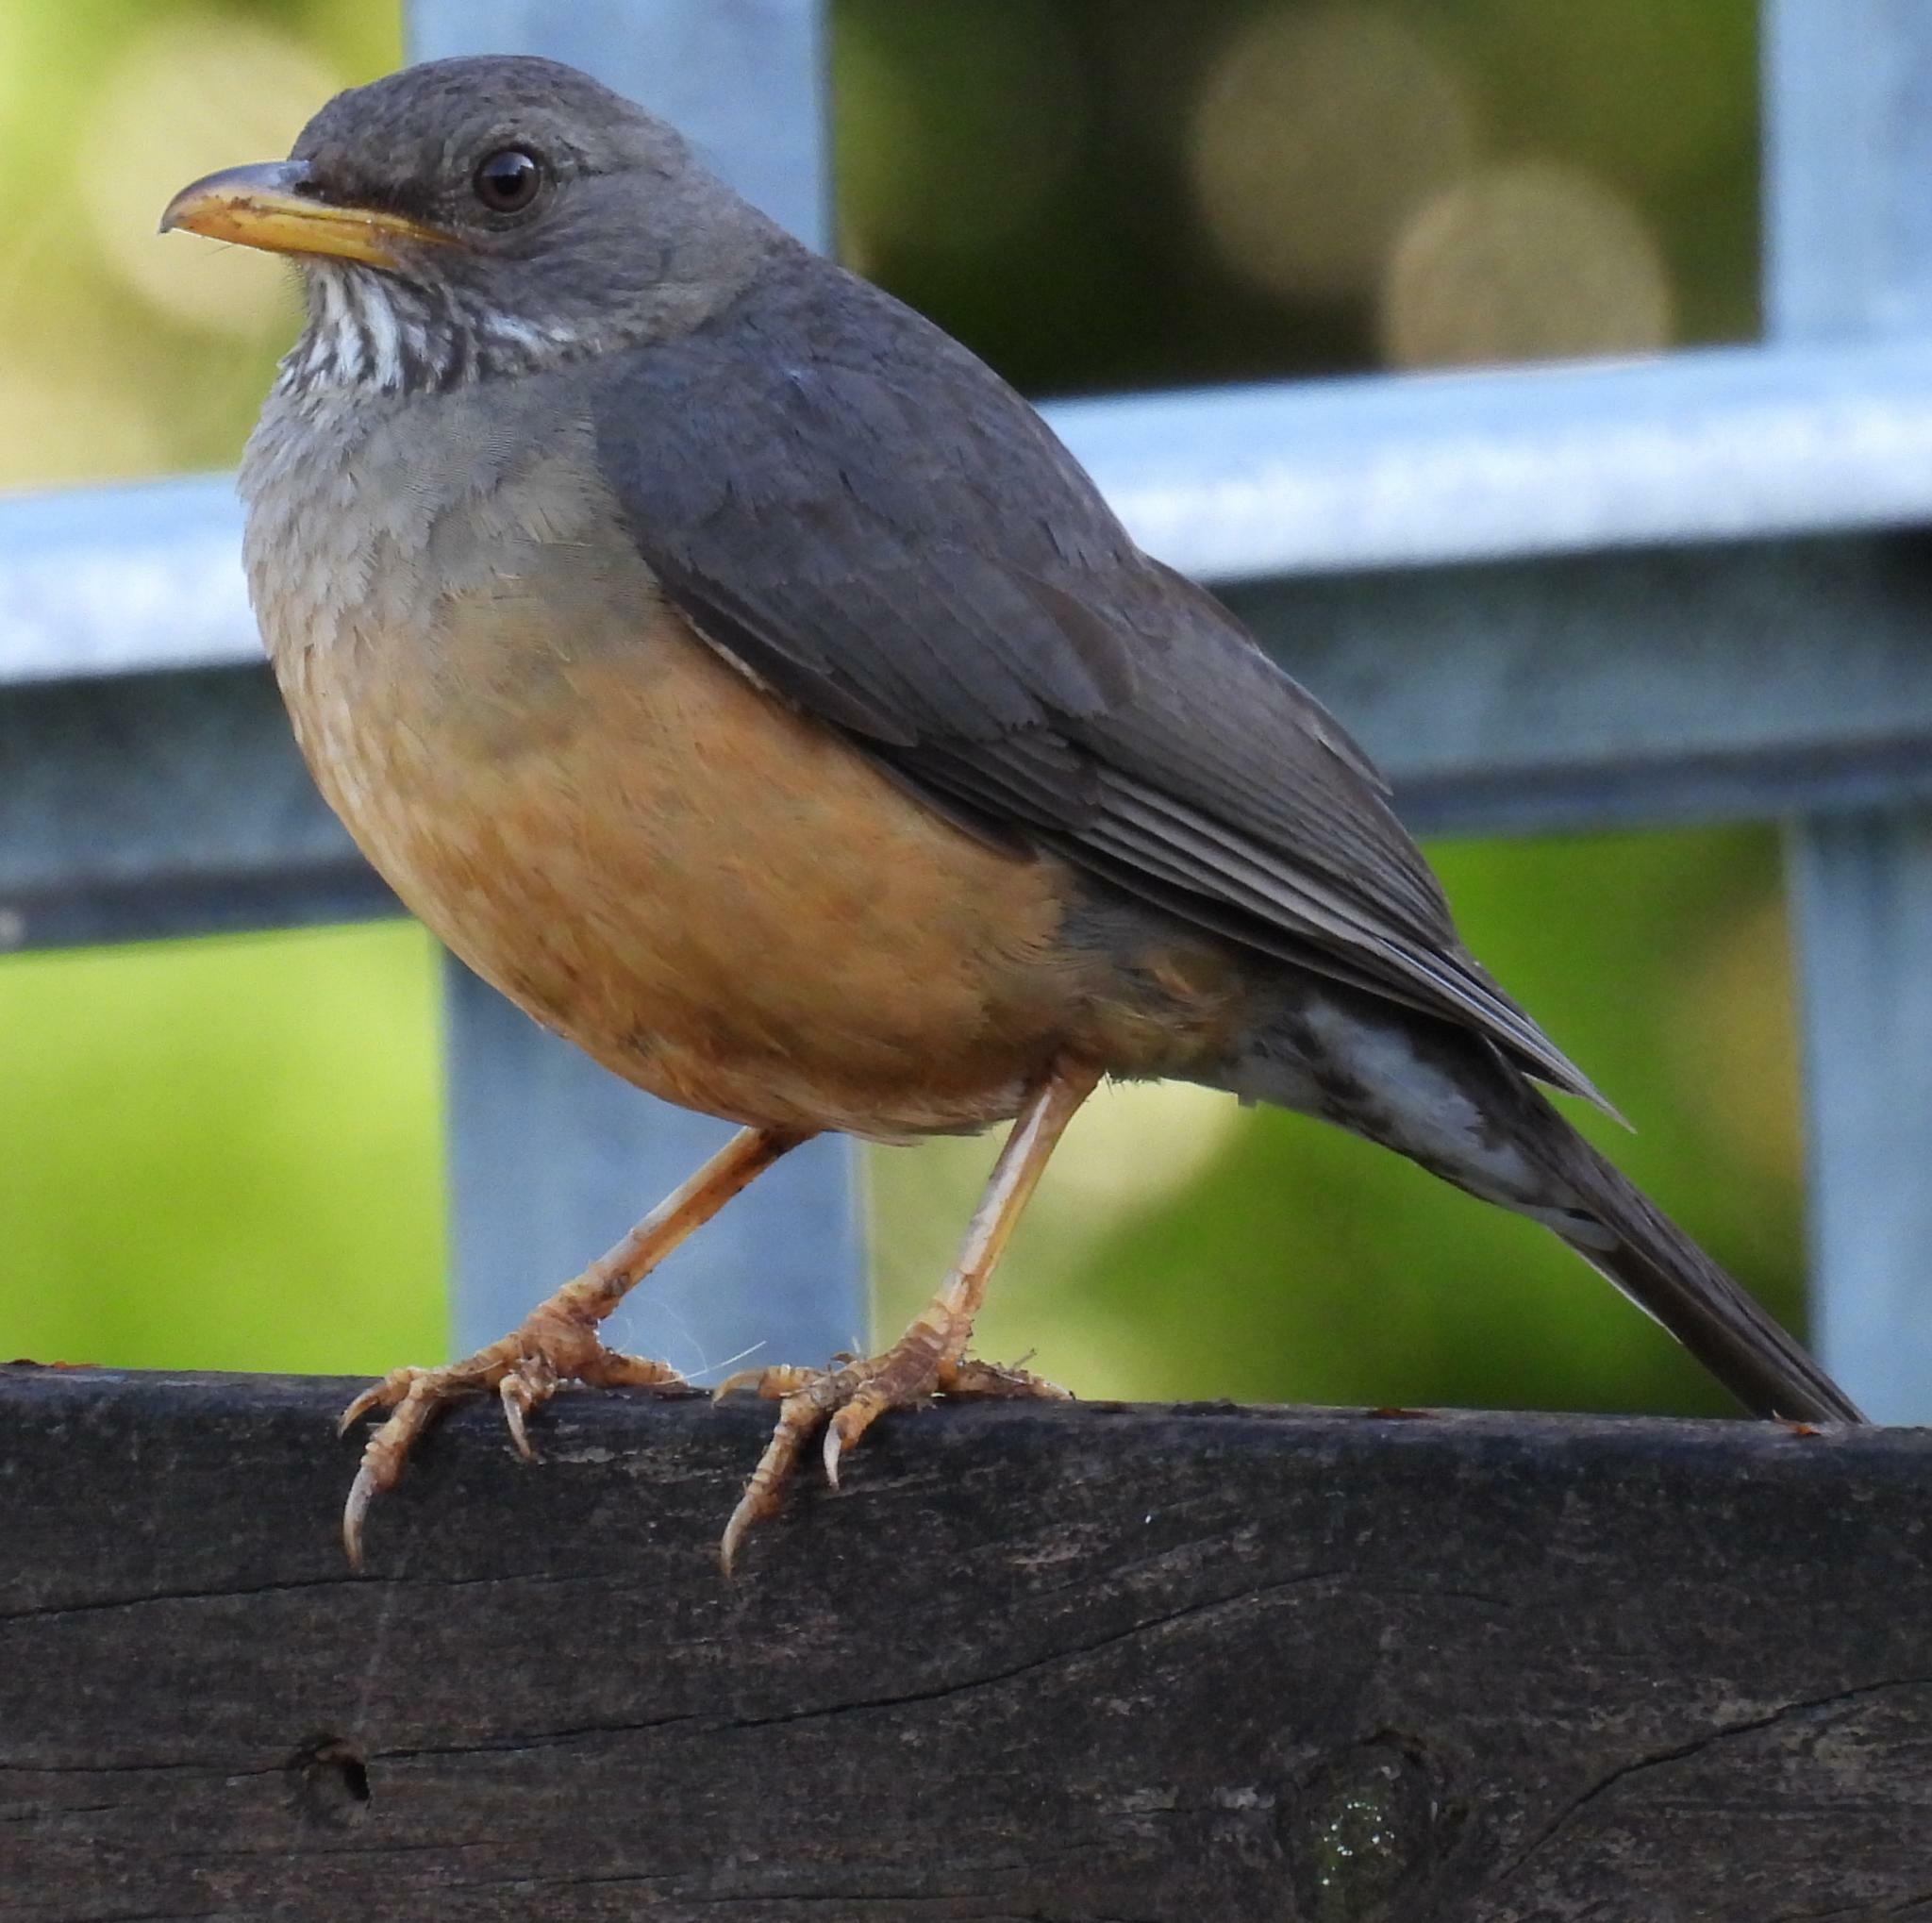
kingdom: Animalia
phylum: Chordata
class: Aves
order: Passeriformes
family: Turdidae
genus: Turdus
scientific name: Turdus olivaceus
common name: Olive thrush
